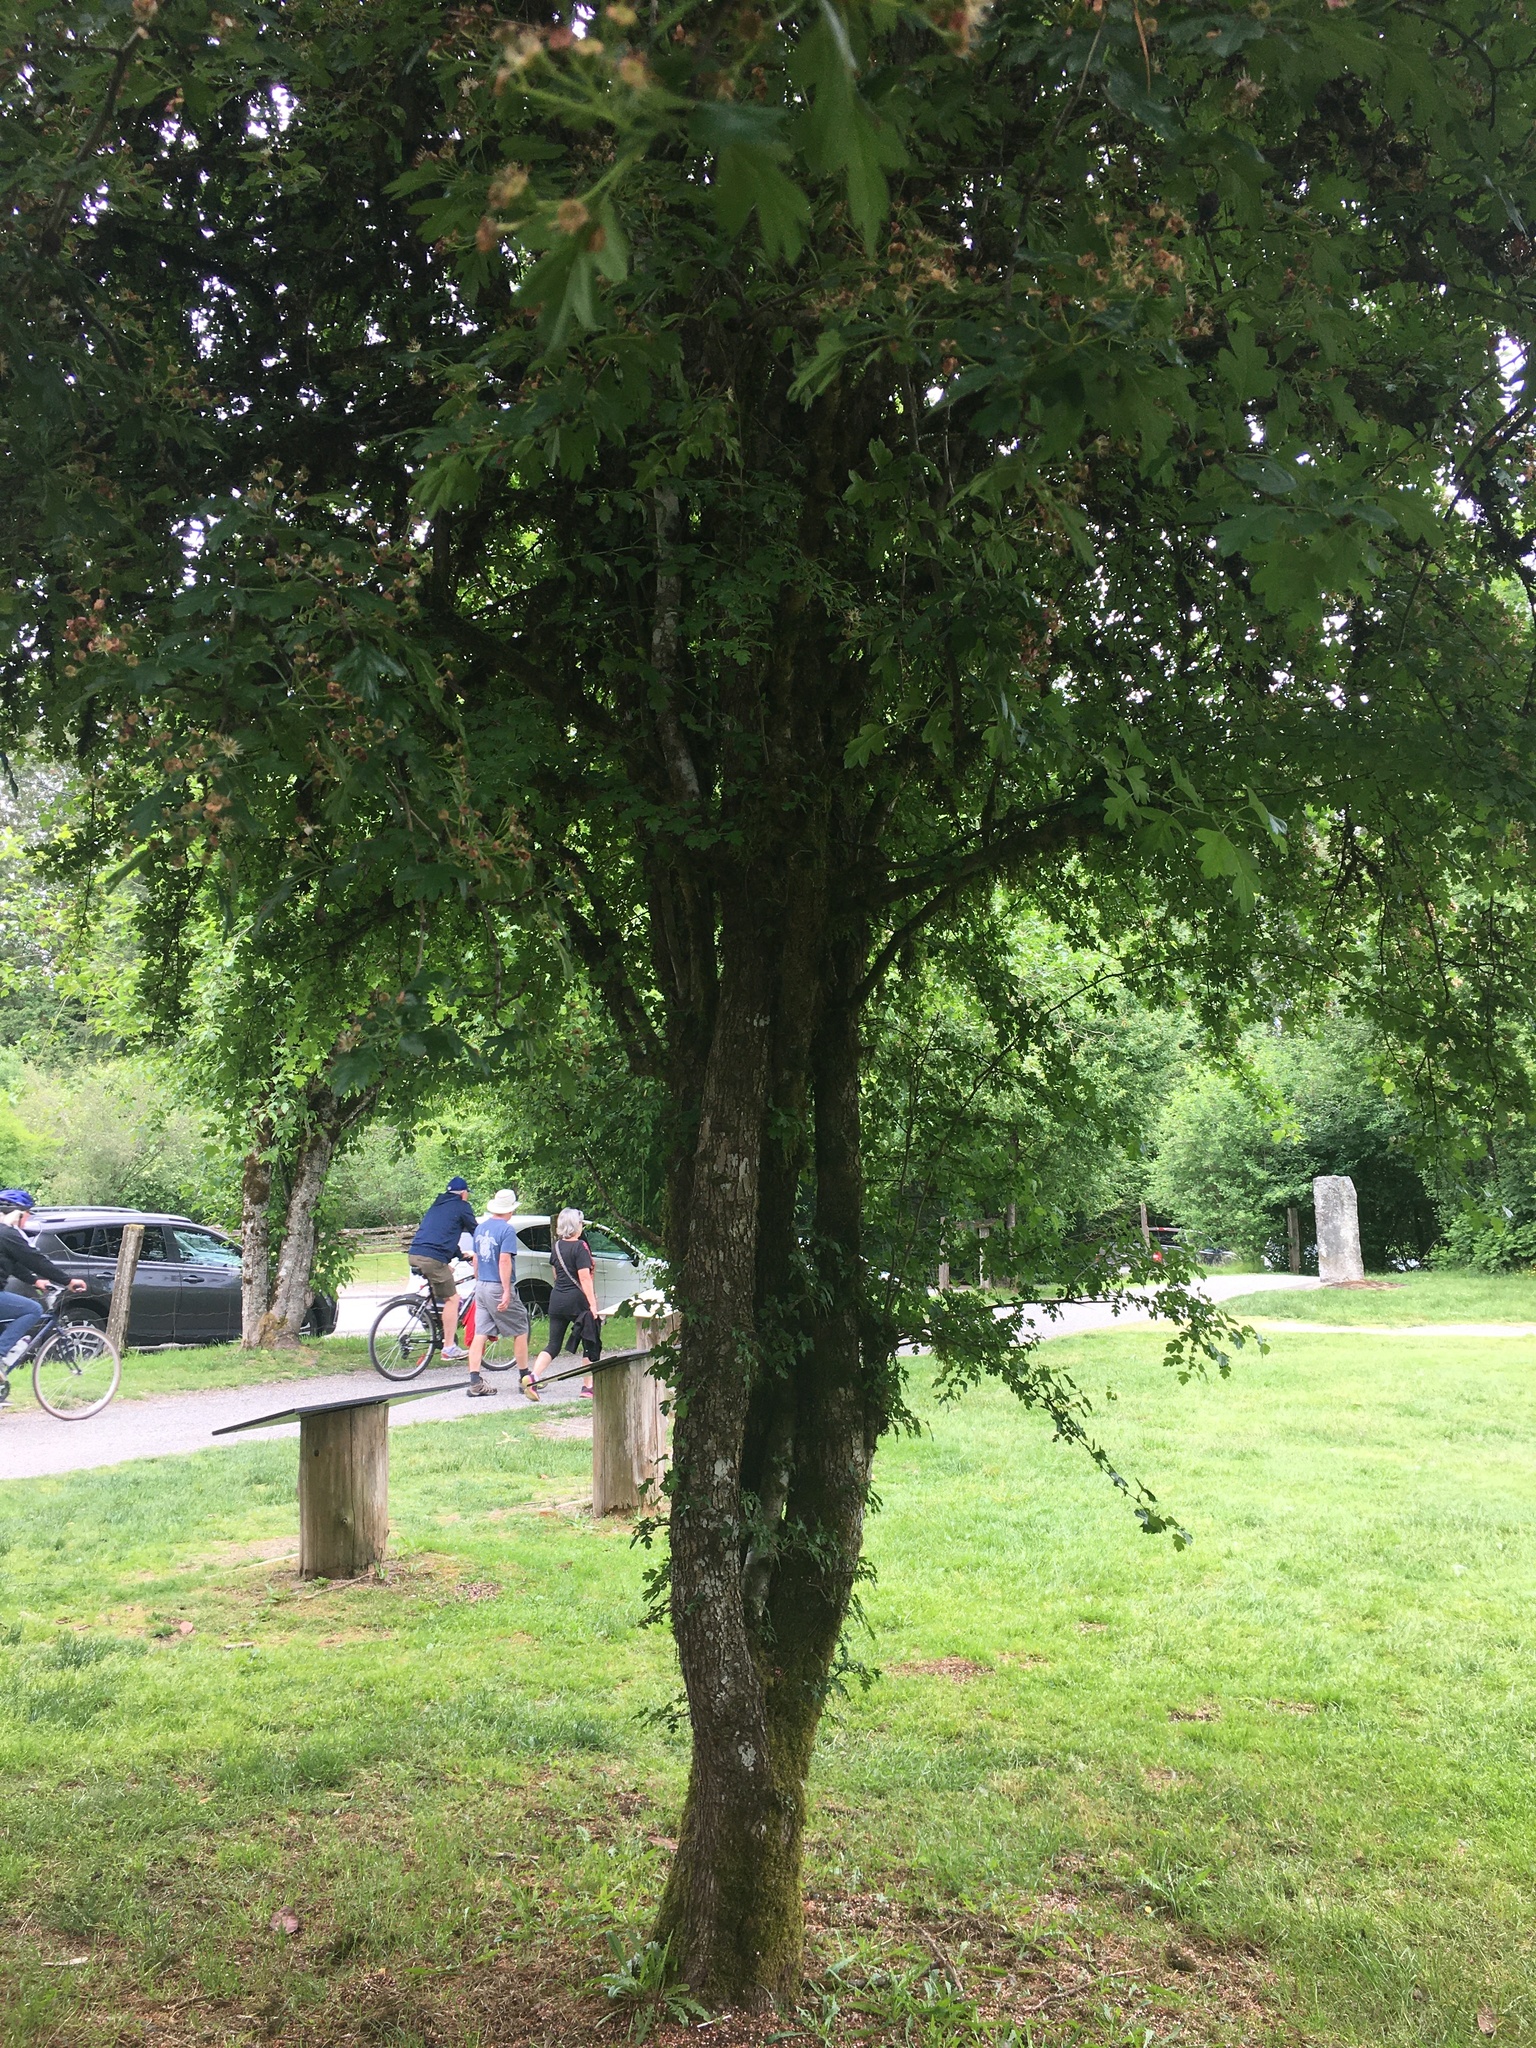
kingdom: Plantae
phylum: Tracheophyta
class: Magnoliopsida
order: Rosales
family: Rosaceae
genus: Crataegus
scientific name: Crataegus monogyna
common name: Hawthorn
